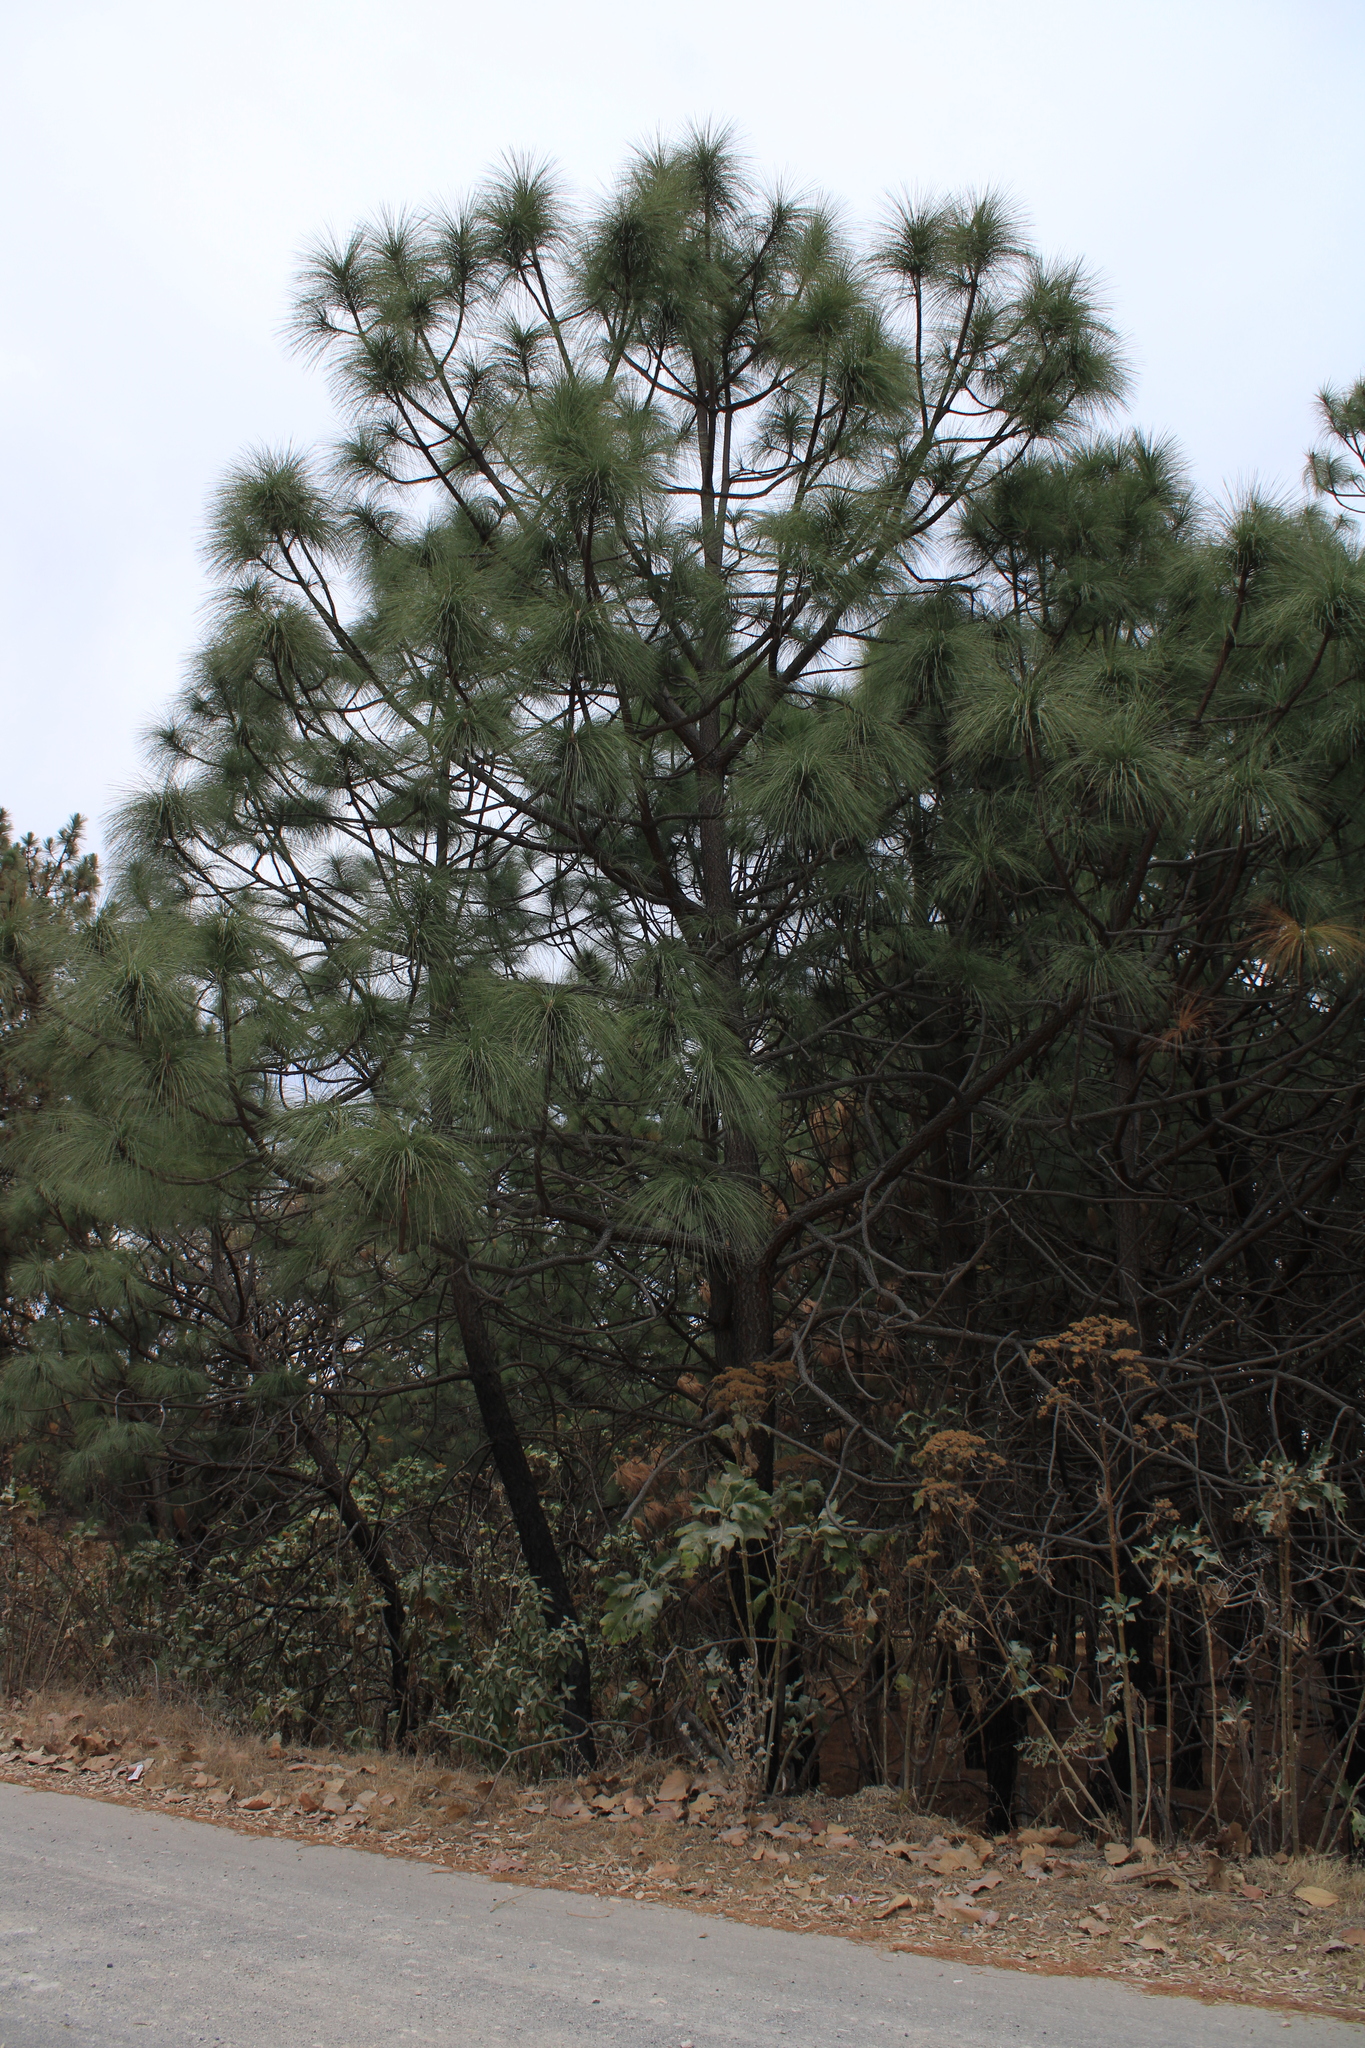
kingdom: Plantae
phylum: Tracheophyta
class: Pinopsida
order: Pinales
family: Pinaceae
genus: Pinus
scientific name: Pinus devoniana
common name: Michoacan pine
